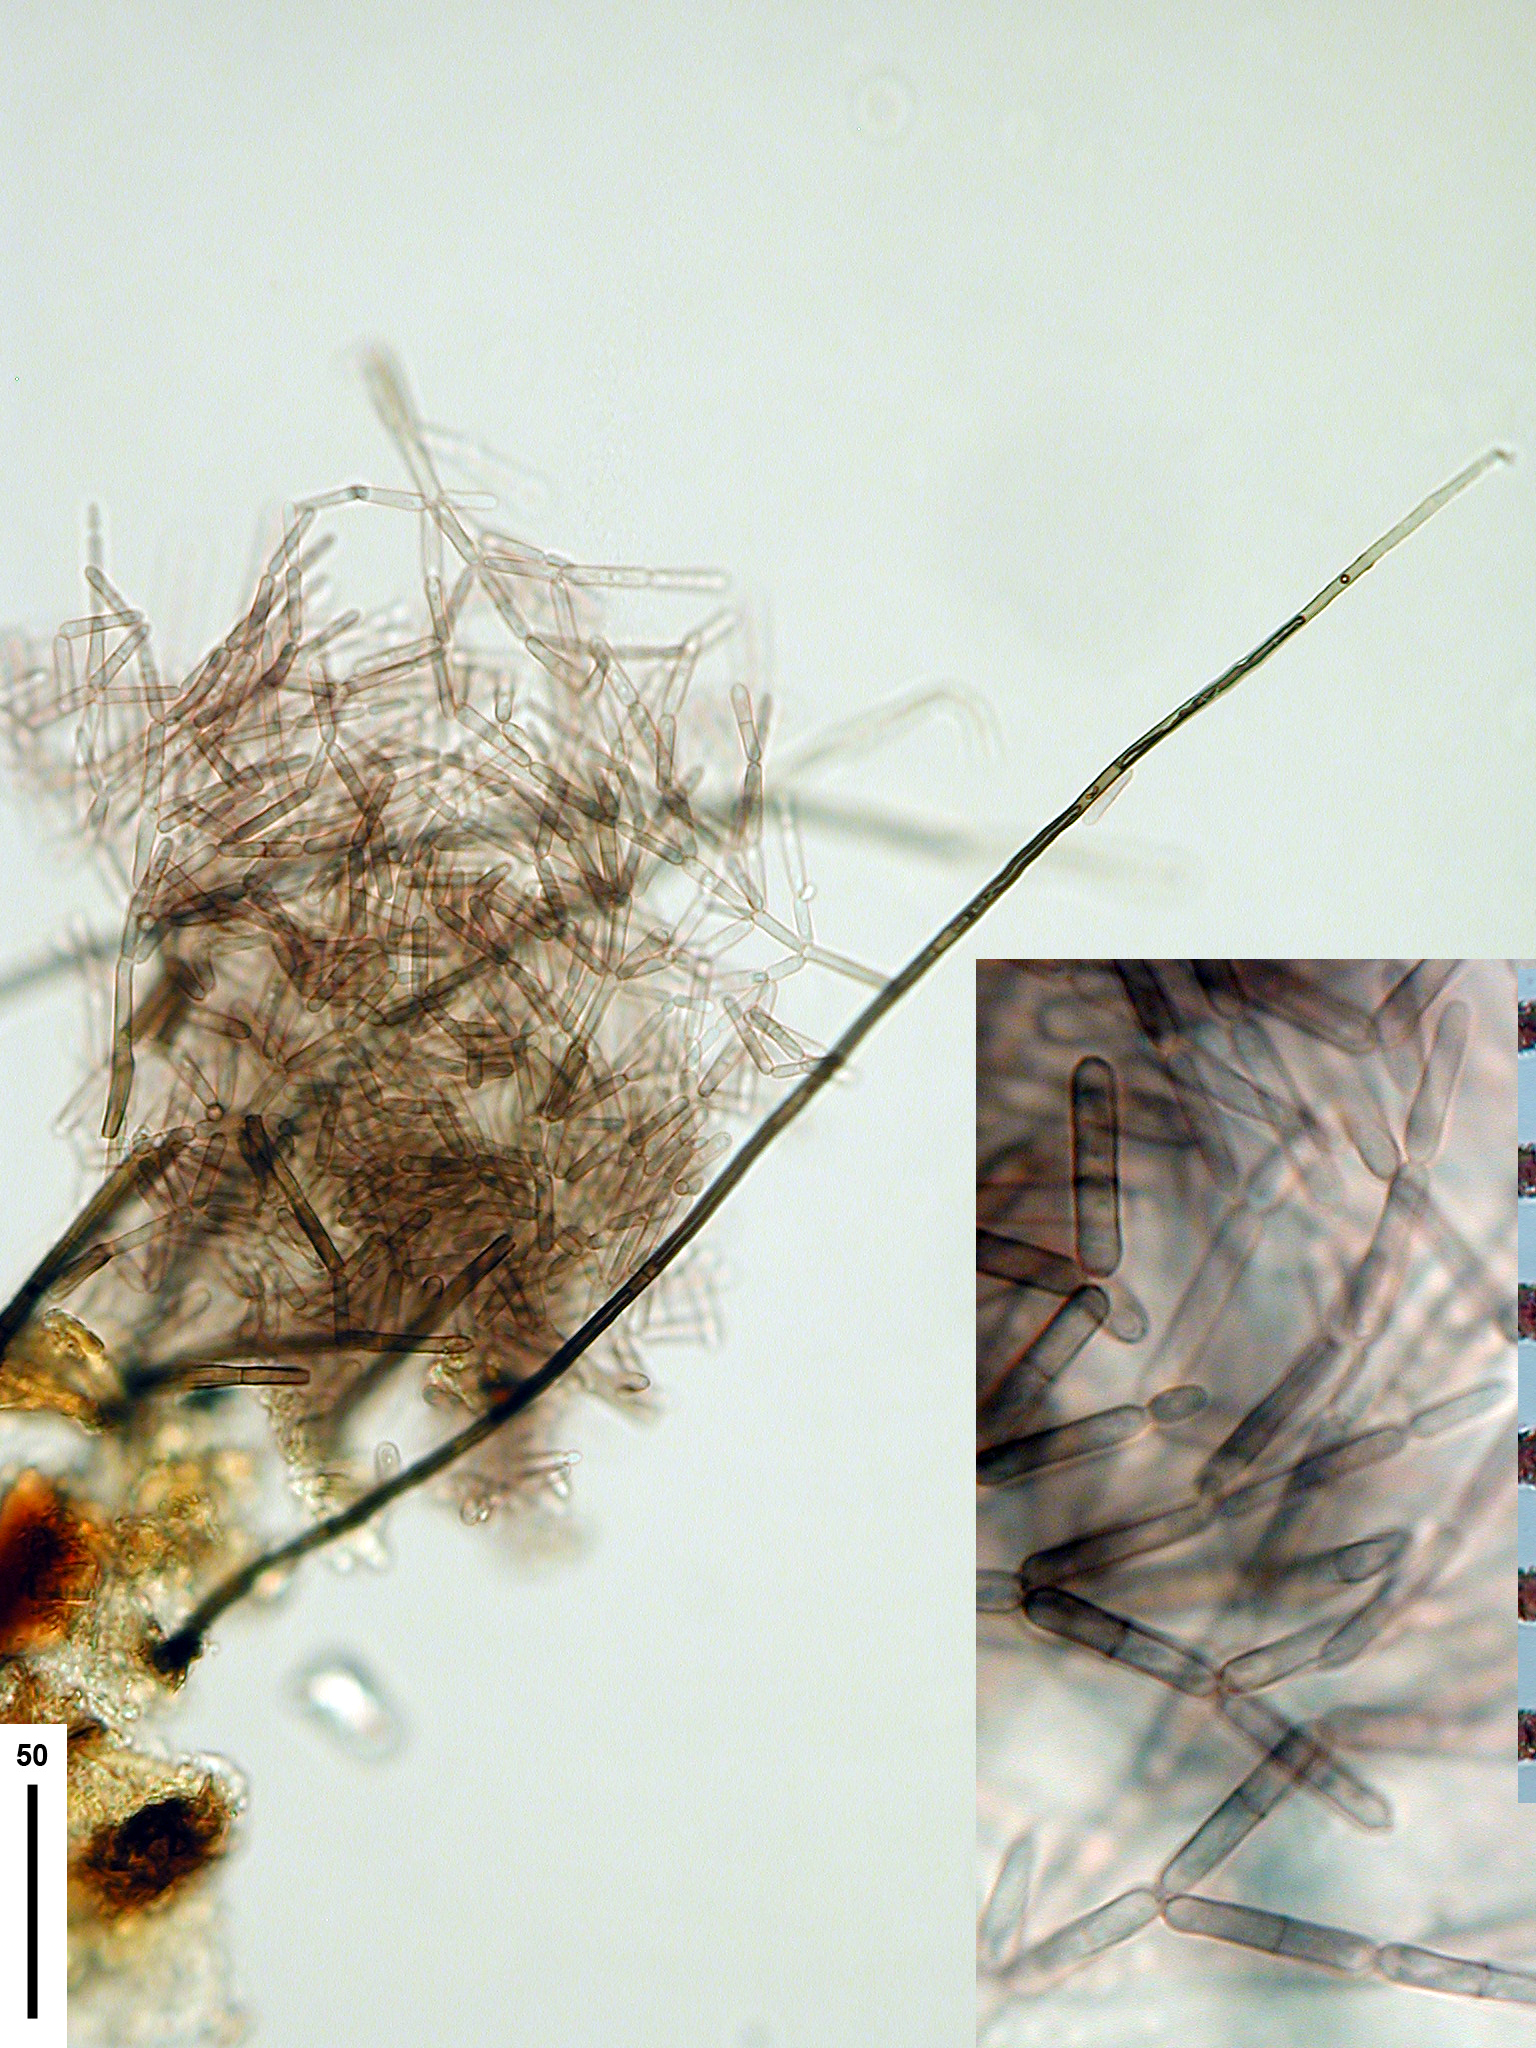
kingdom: Fungi
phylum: Ascomycota
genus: Hormiactella
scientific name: Hormiactella fusca
